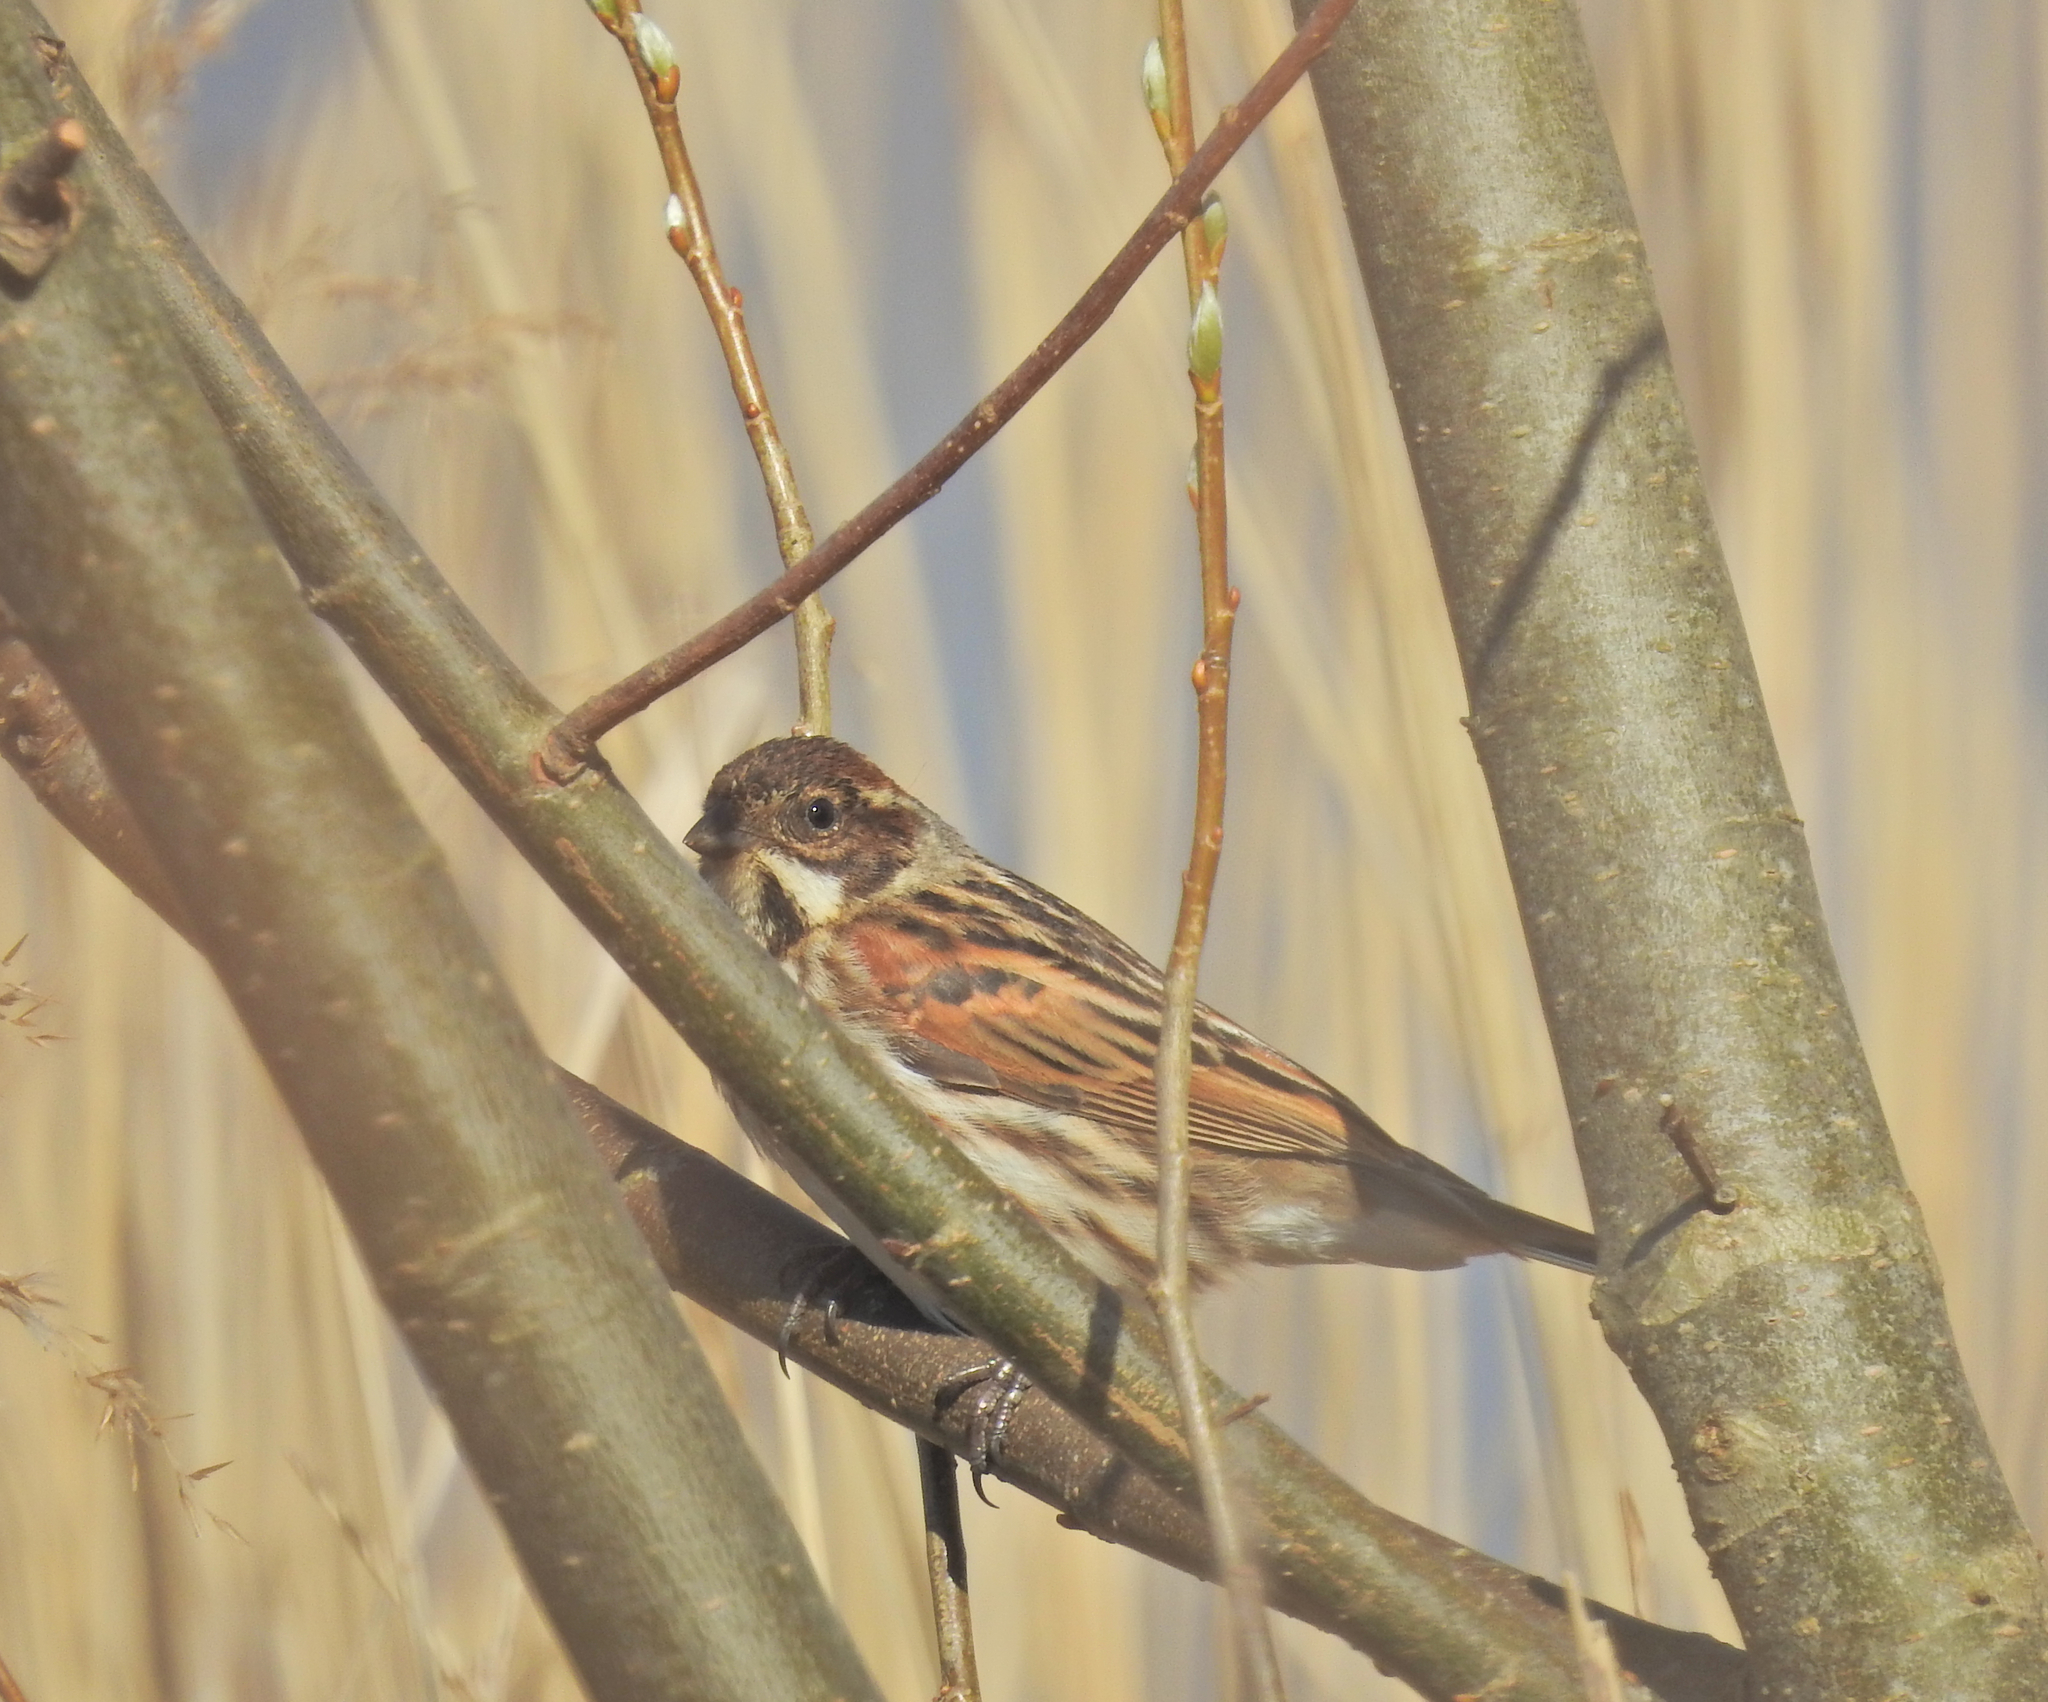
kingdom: Animalia
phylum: Chordata
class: Aves
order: Passeriformes
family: Emberizidae
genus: Emberiza
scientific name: Emberiza schoeniclus
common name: Reed bunting
